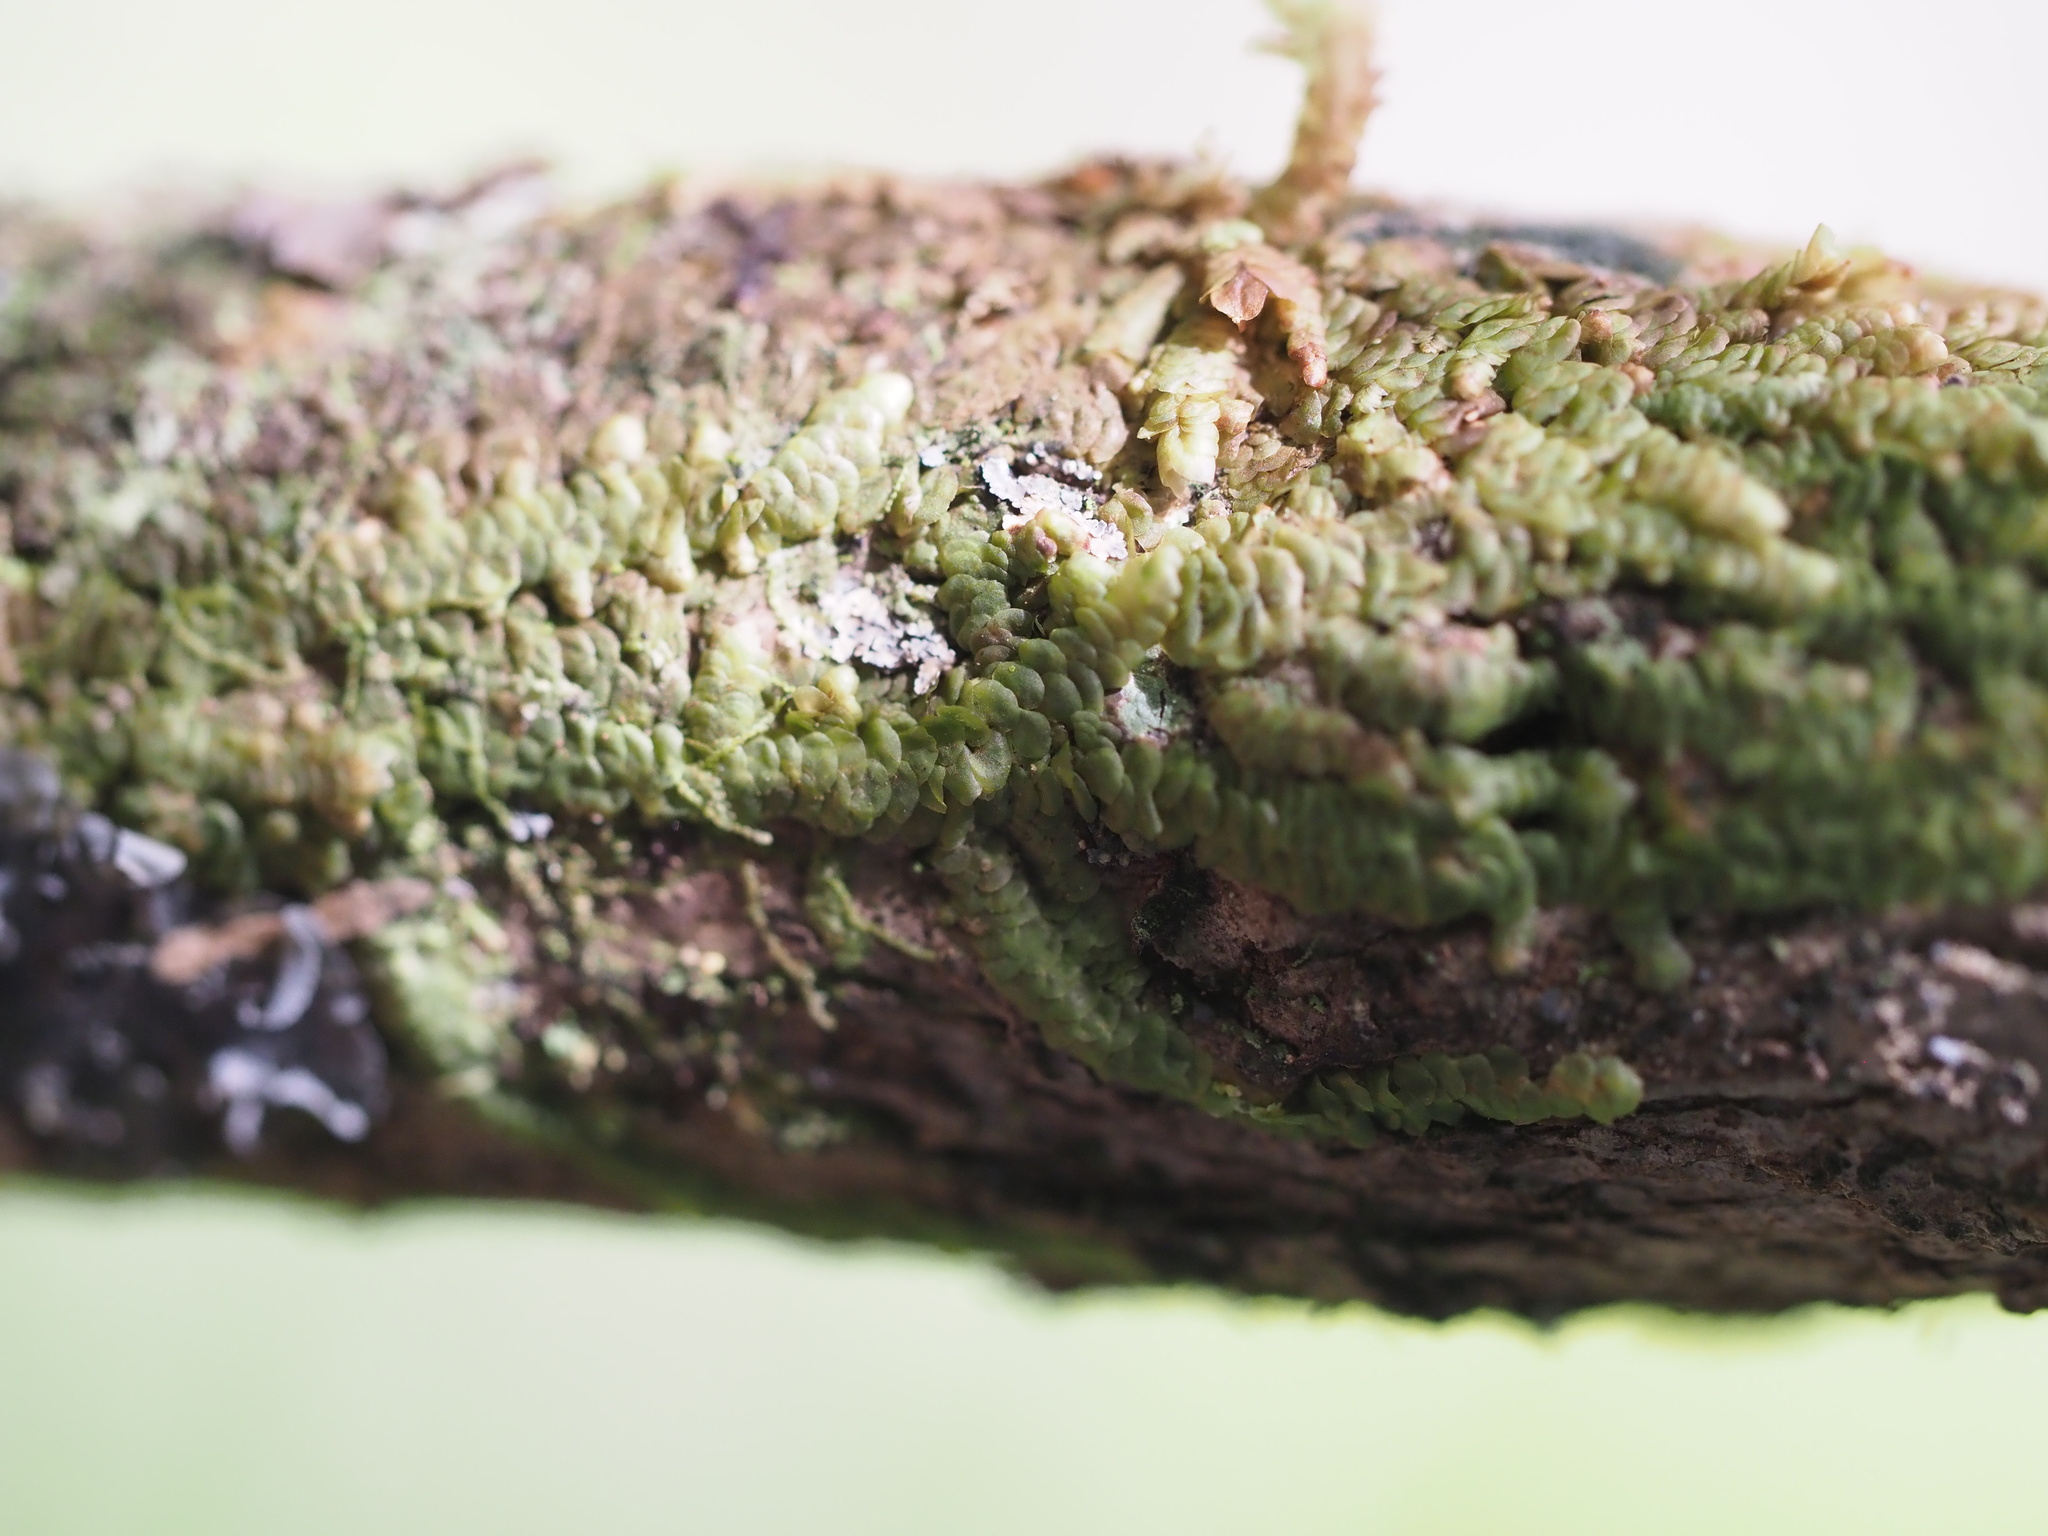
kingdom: Plantae
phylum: Marchantiophyta
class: Jungermanniopsida
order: Porellales
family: Frullaniaceae
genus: Frullania
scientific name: Frullania hypoleuca
